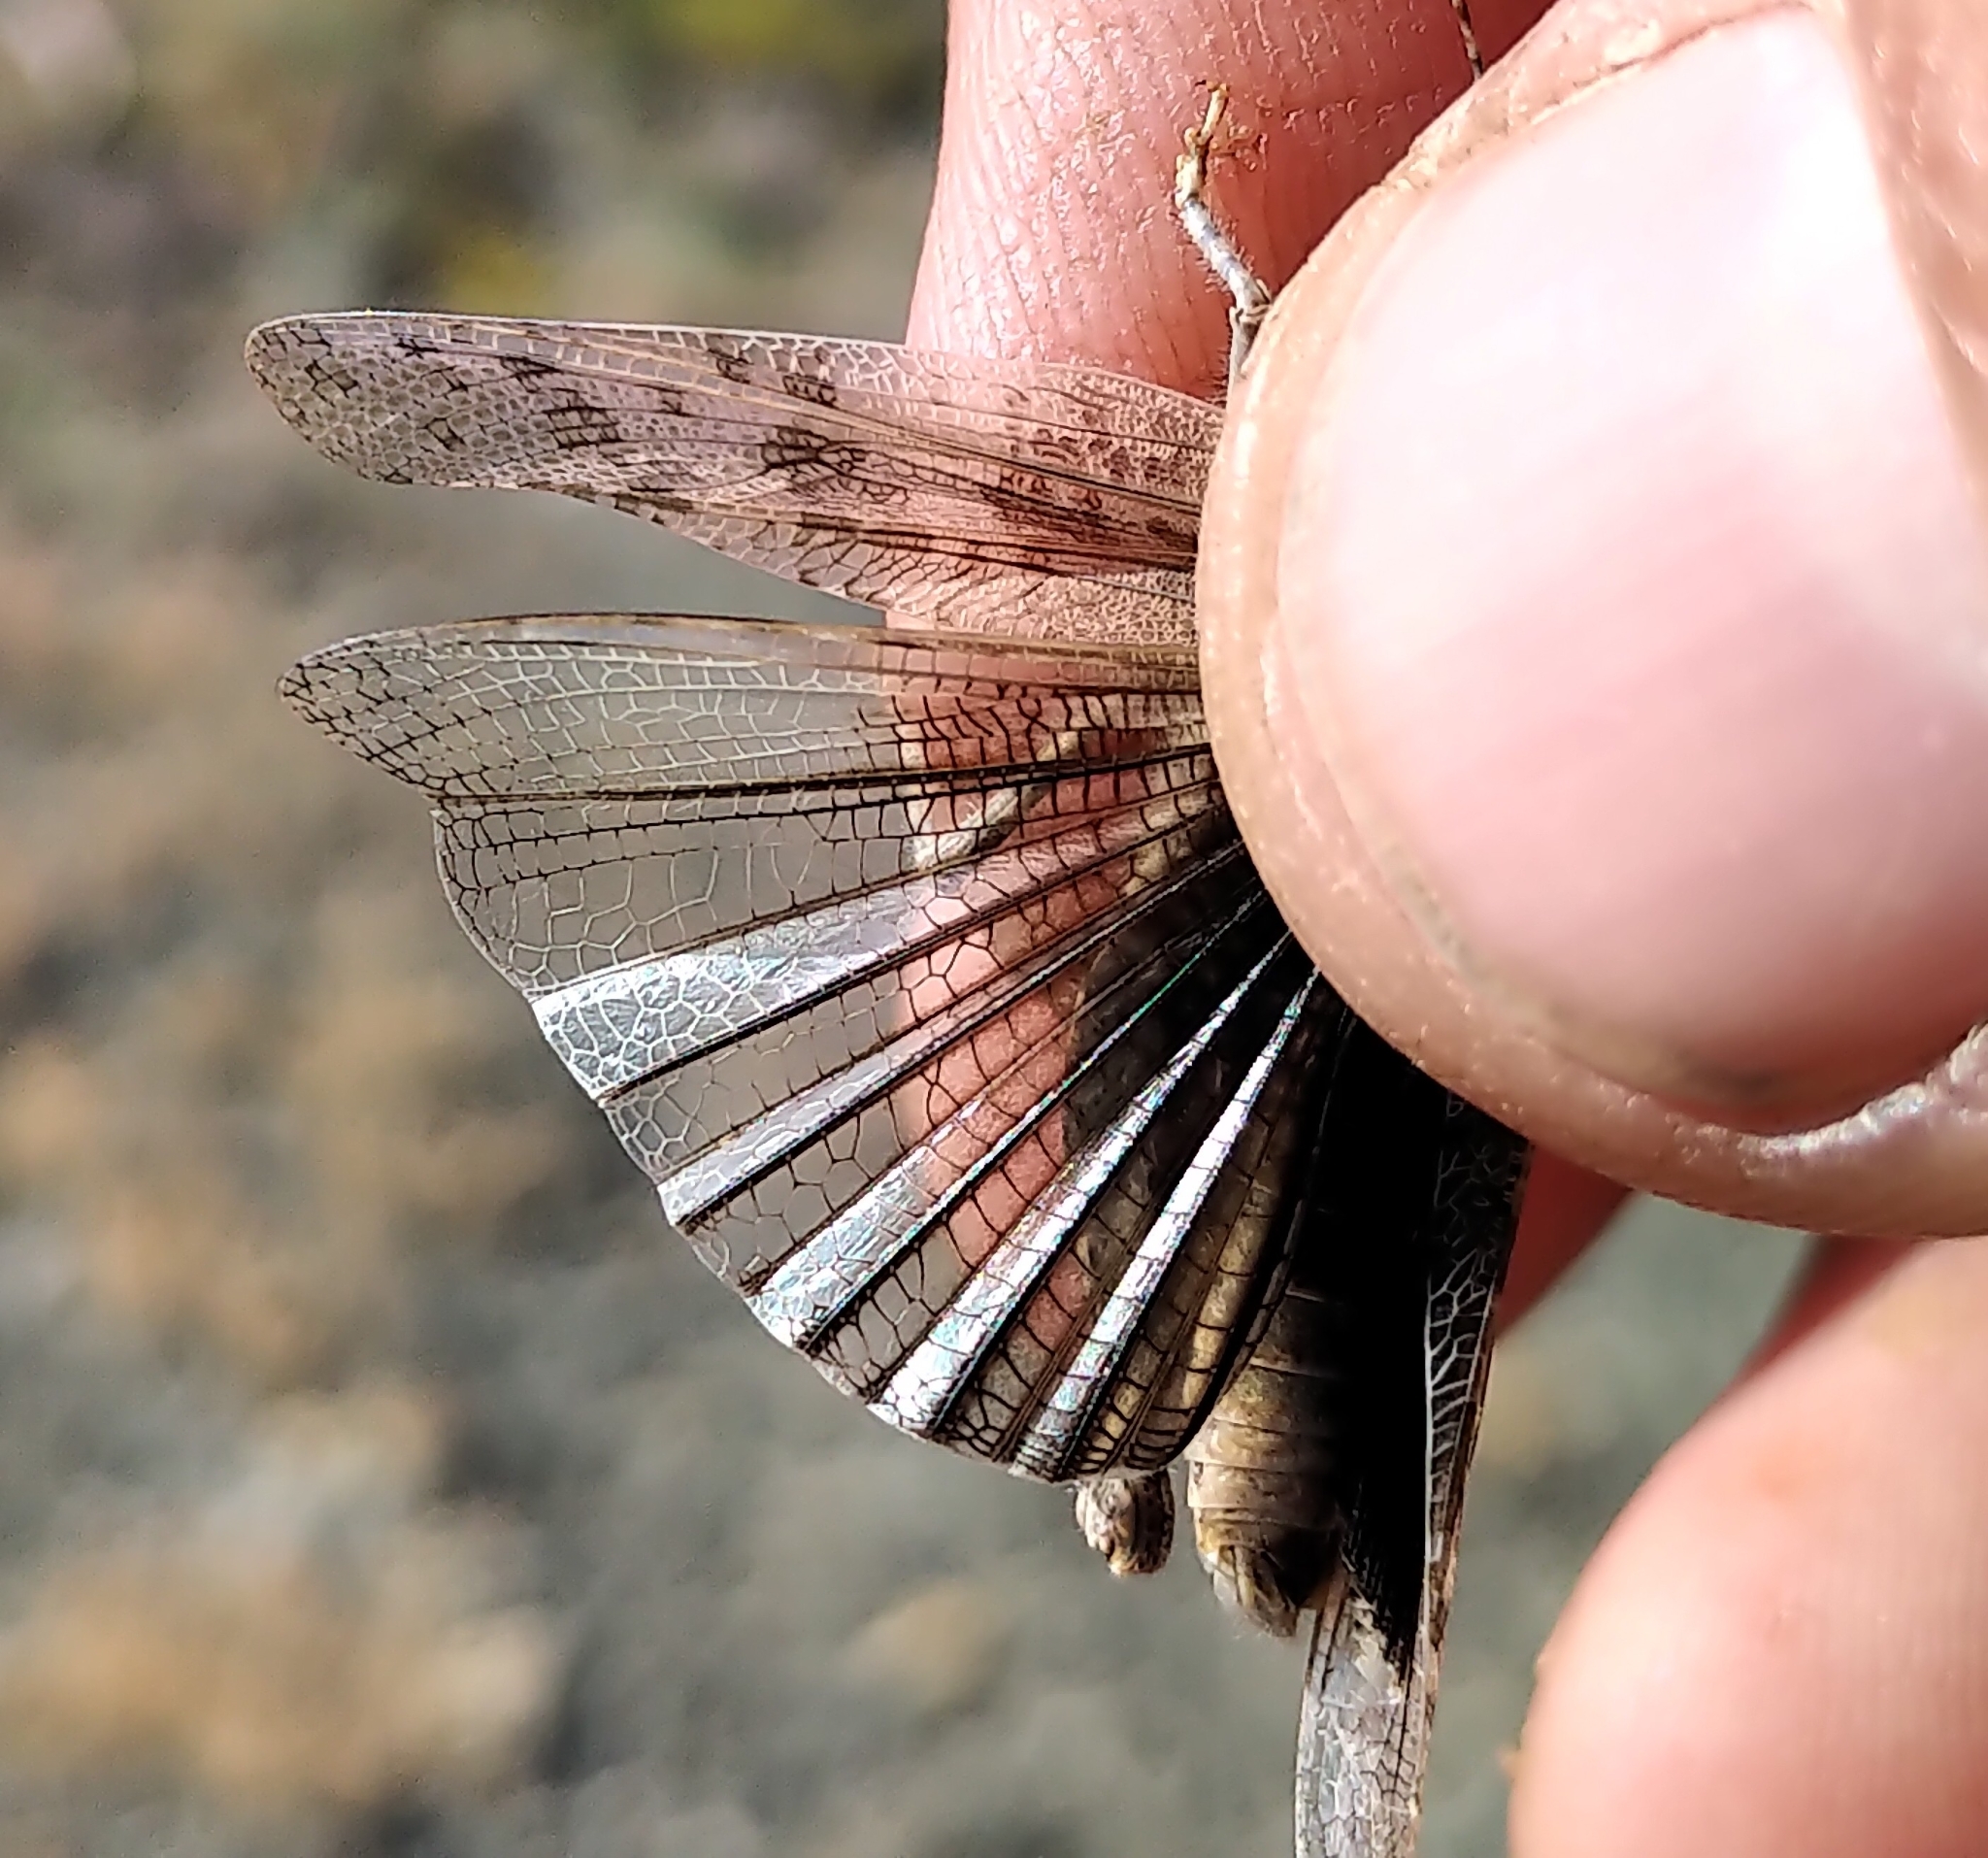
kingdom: Animalia
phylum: Arthropoda
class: Insecta
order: Orthoptera
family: Acrididae
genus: Circotettix
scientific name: Circotettix carlinianus
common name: Carlinian snapper grasshopper
